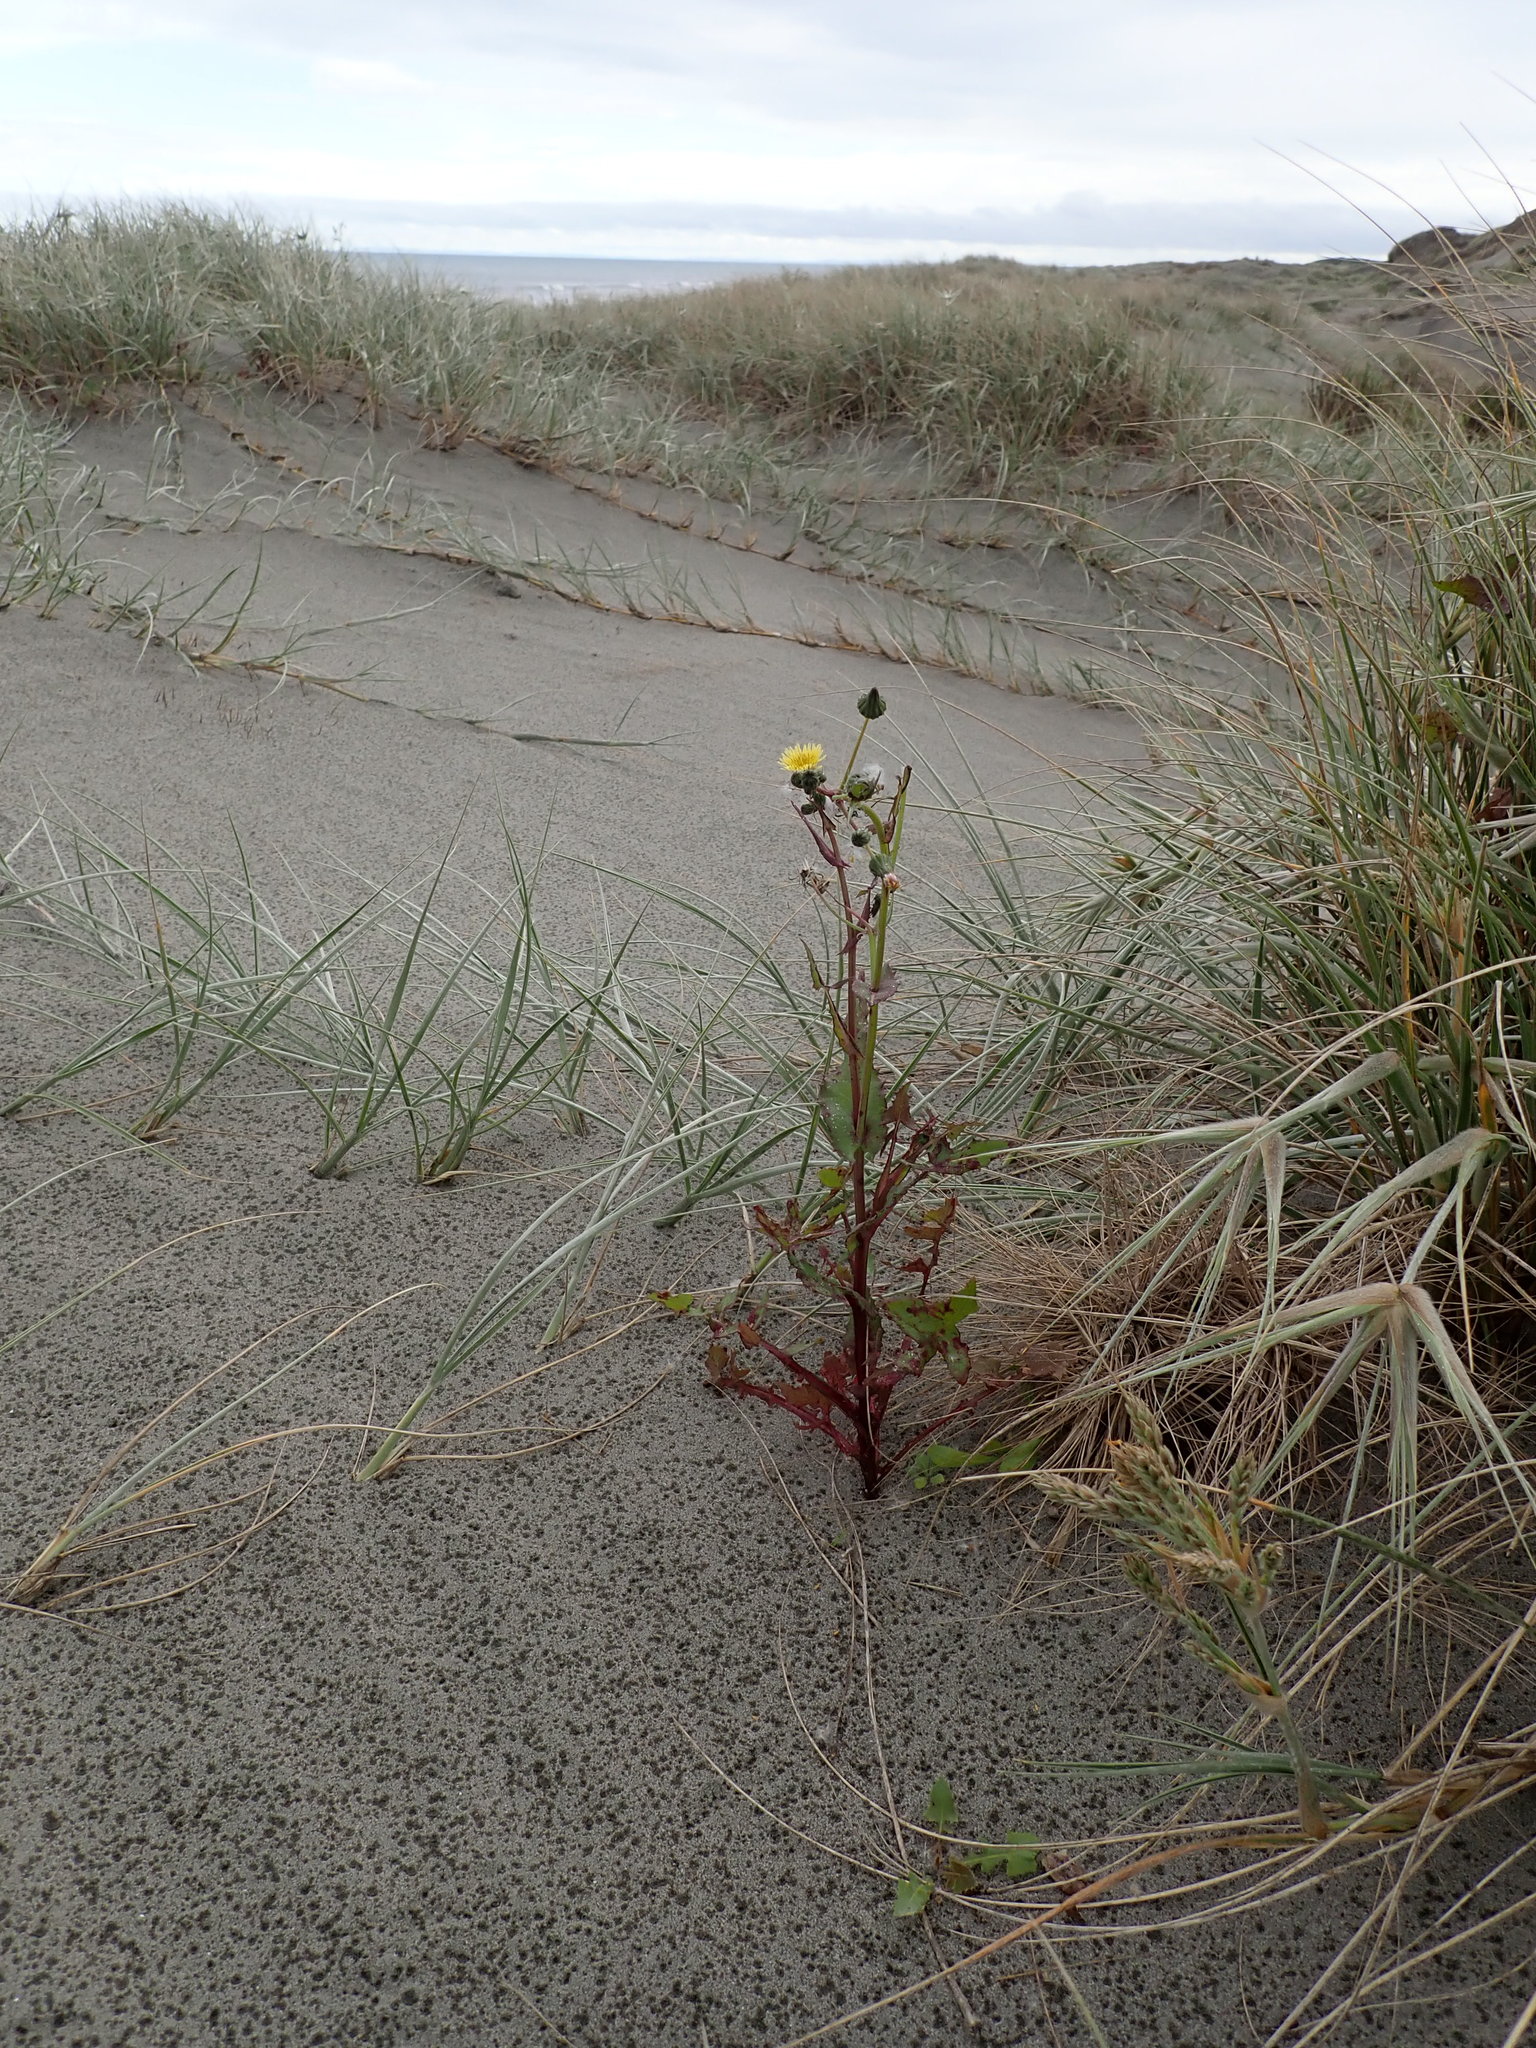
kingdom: Plantae
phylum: Tracheophyta
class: Magnoliopsida
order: Asterales
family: Asteraceae
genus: Sonchus
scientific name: Sonchus oleraceus
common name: Common sowthistle
